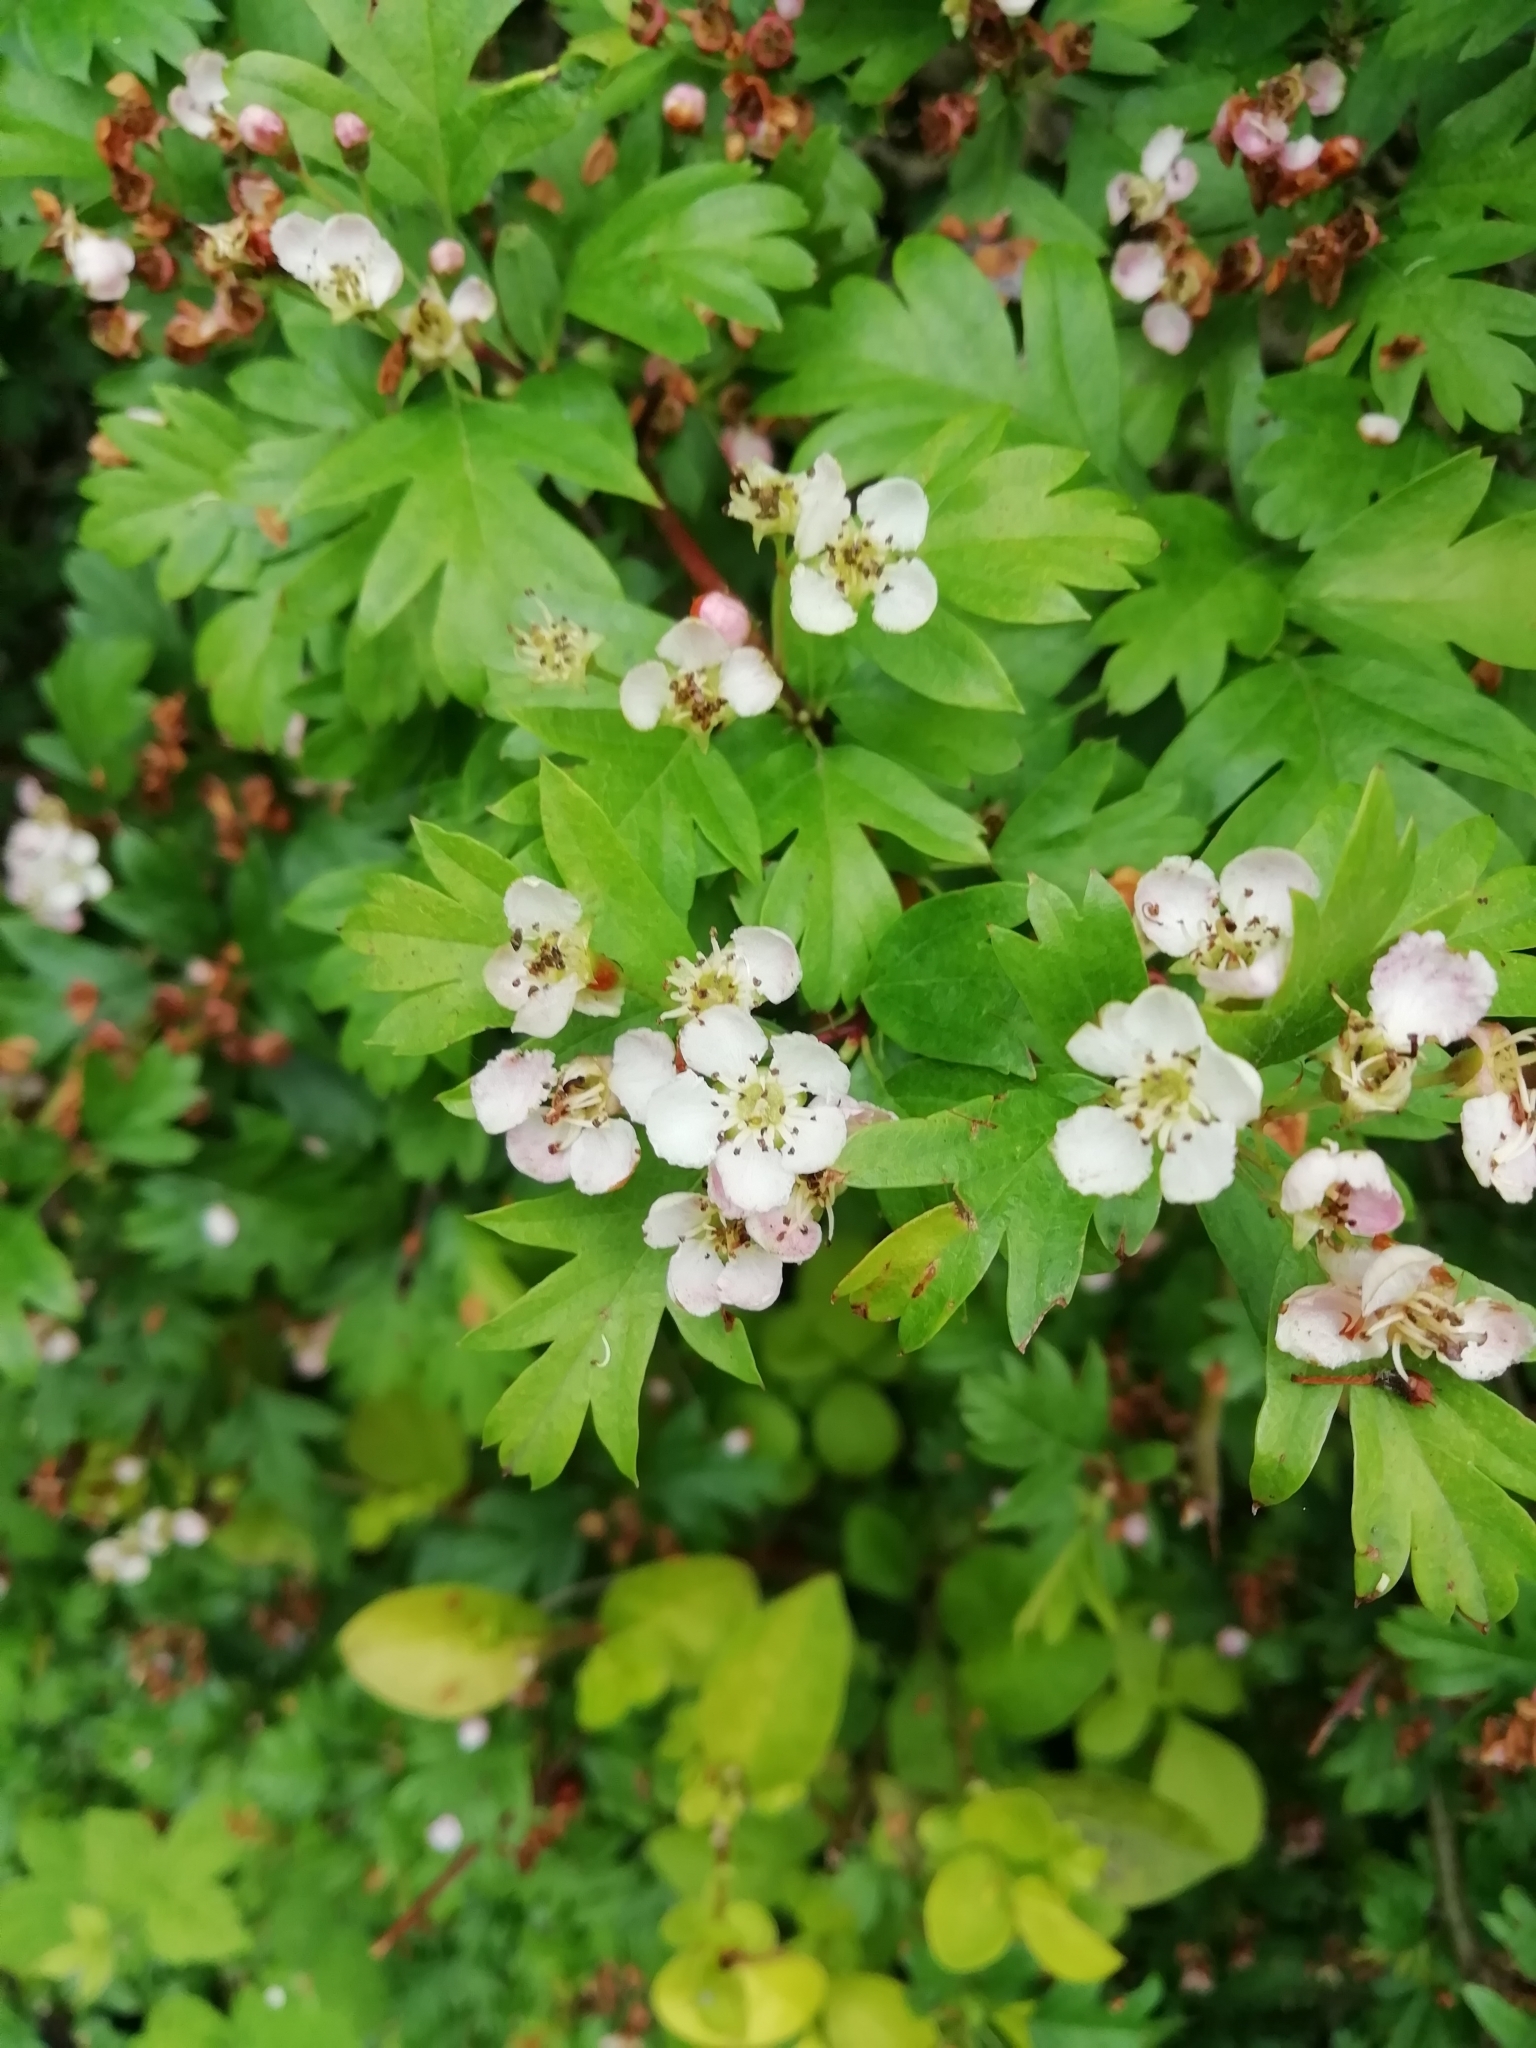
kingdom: Plantae
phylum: Tracheophyta
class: Magnoliopsida
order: Rosales
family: Rosaceae
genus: Crataegus
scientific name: Crataegus monogyna
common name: Hawthorn
